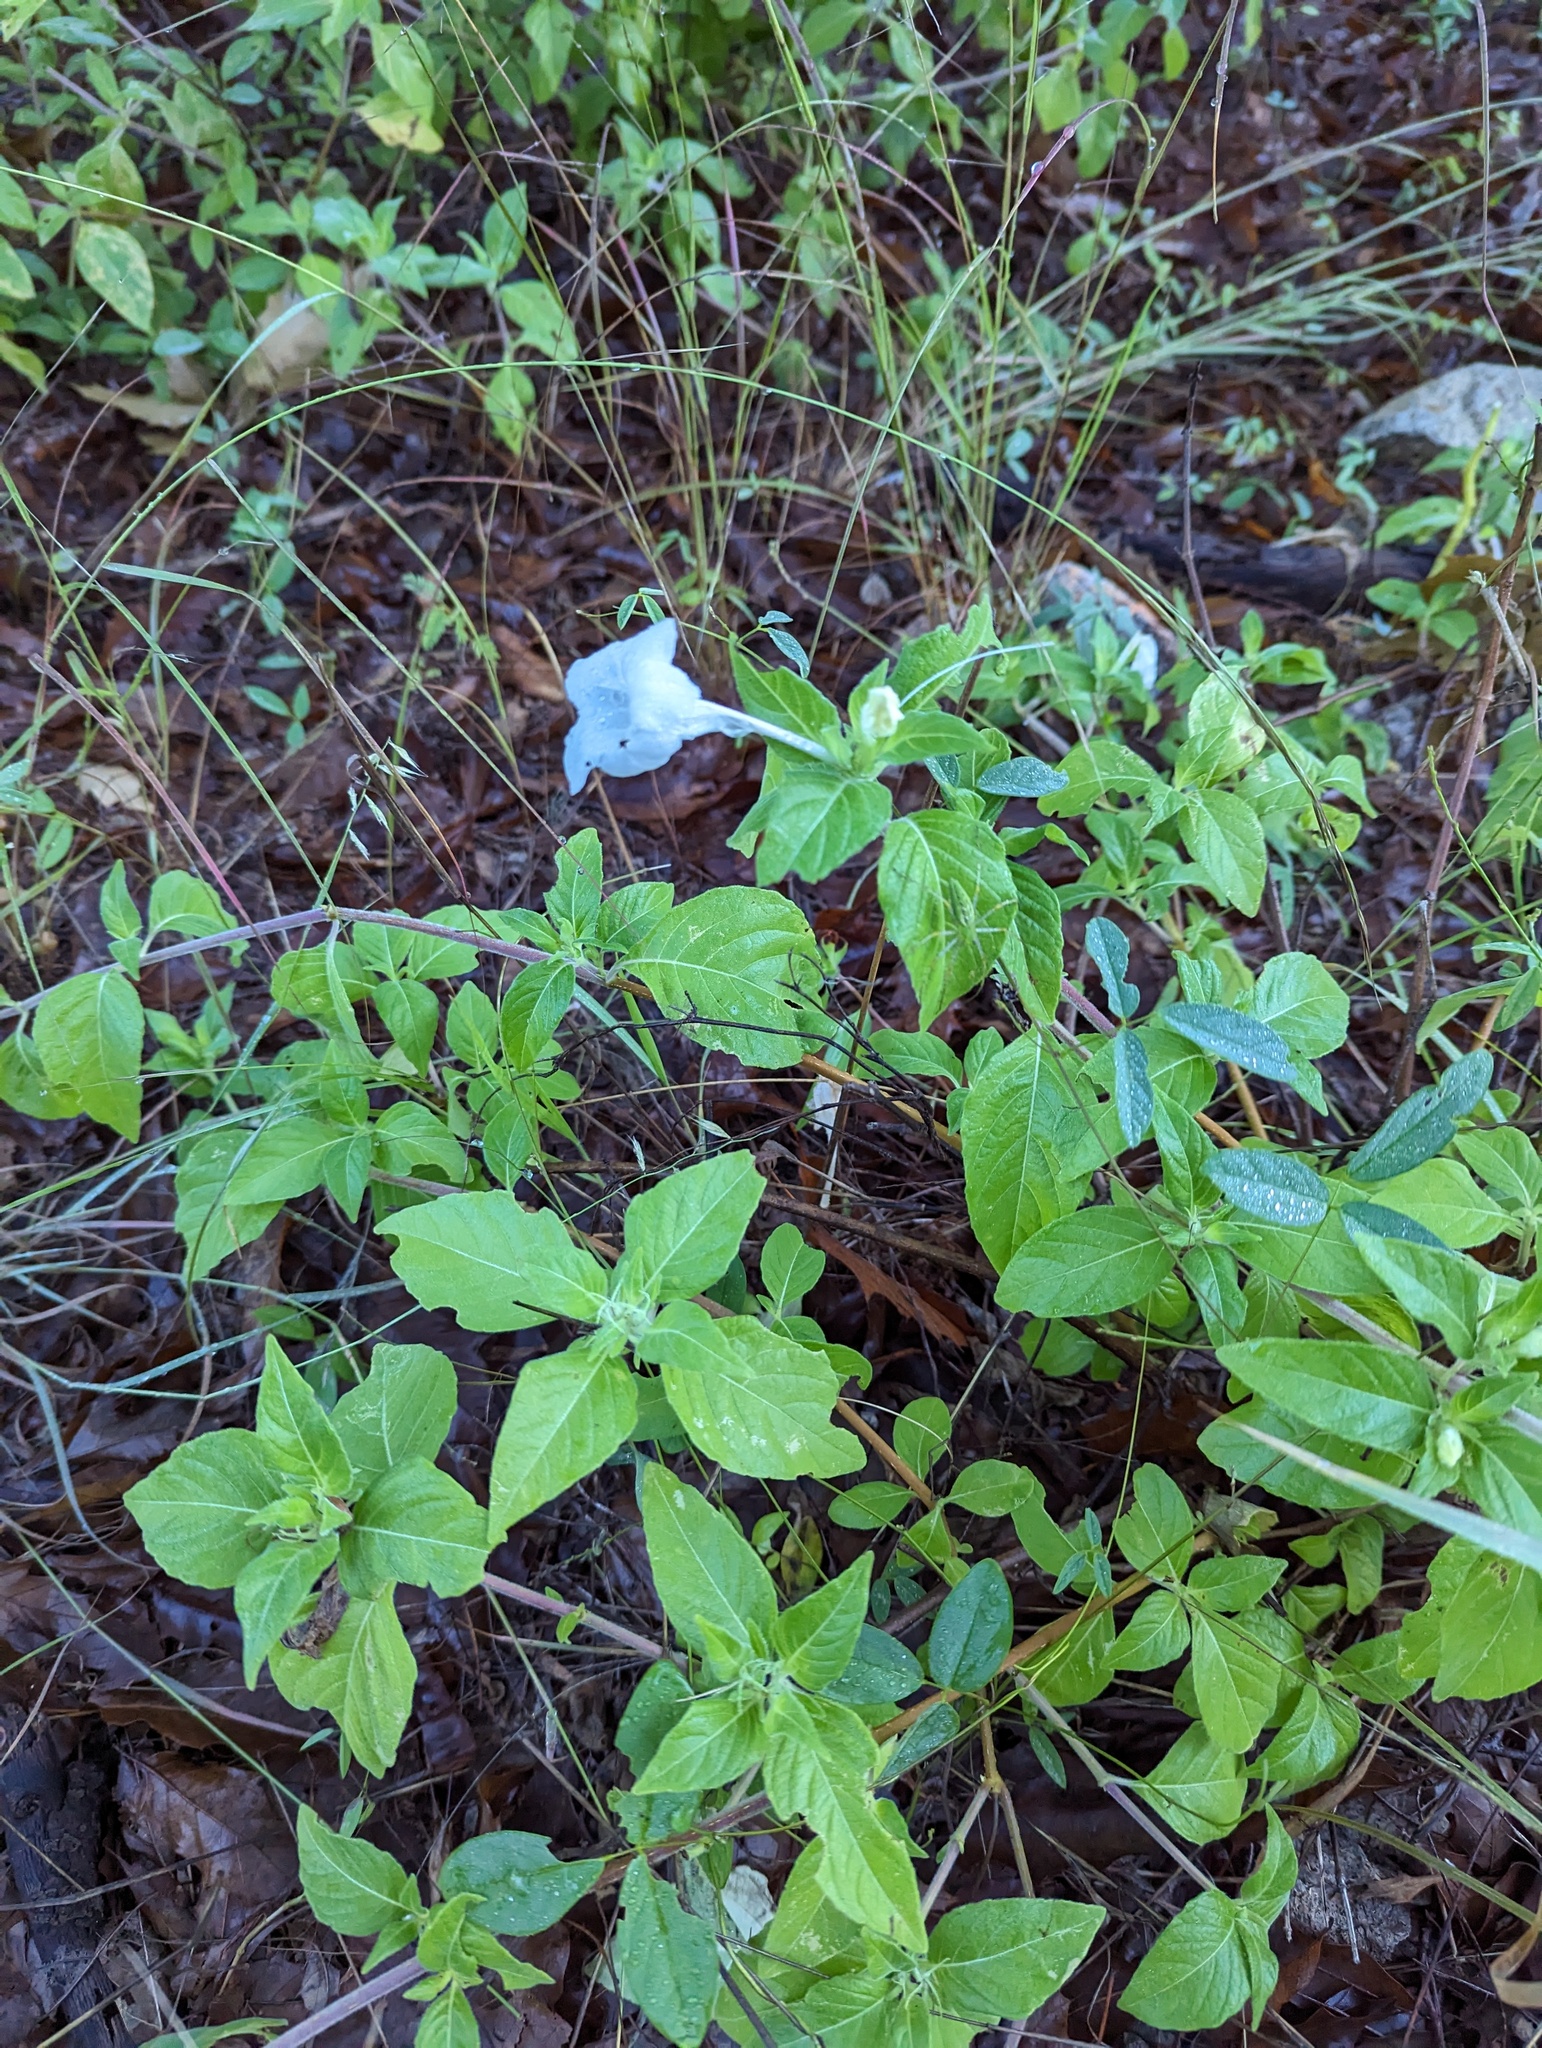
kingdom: Plantae
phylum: Tracheophyta
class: Magnoliopsida
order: Lamiales
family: Acanthaceae
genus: Ruellia
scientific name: Ruellia leucantha
